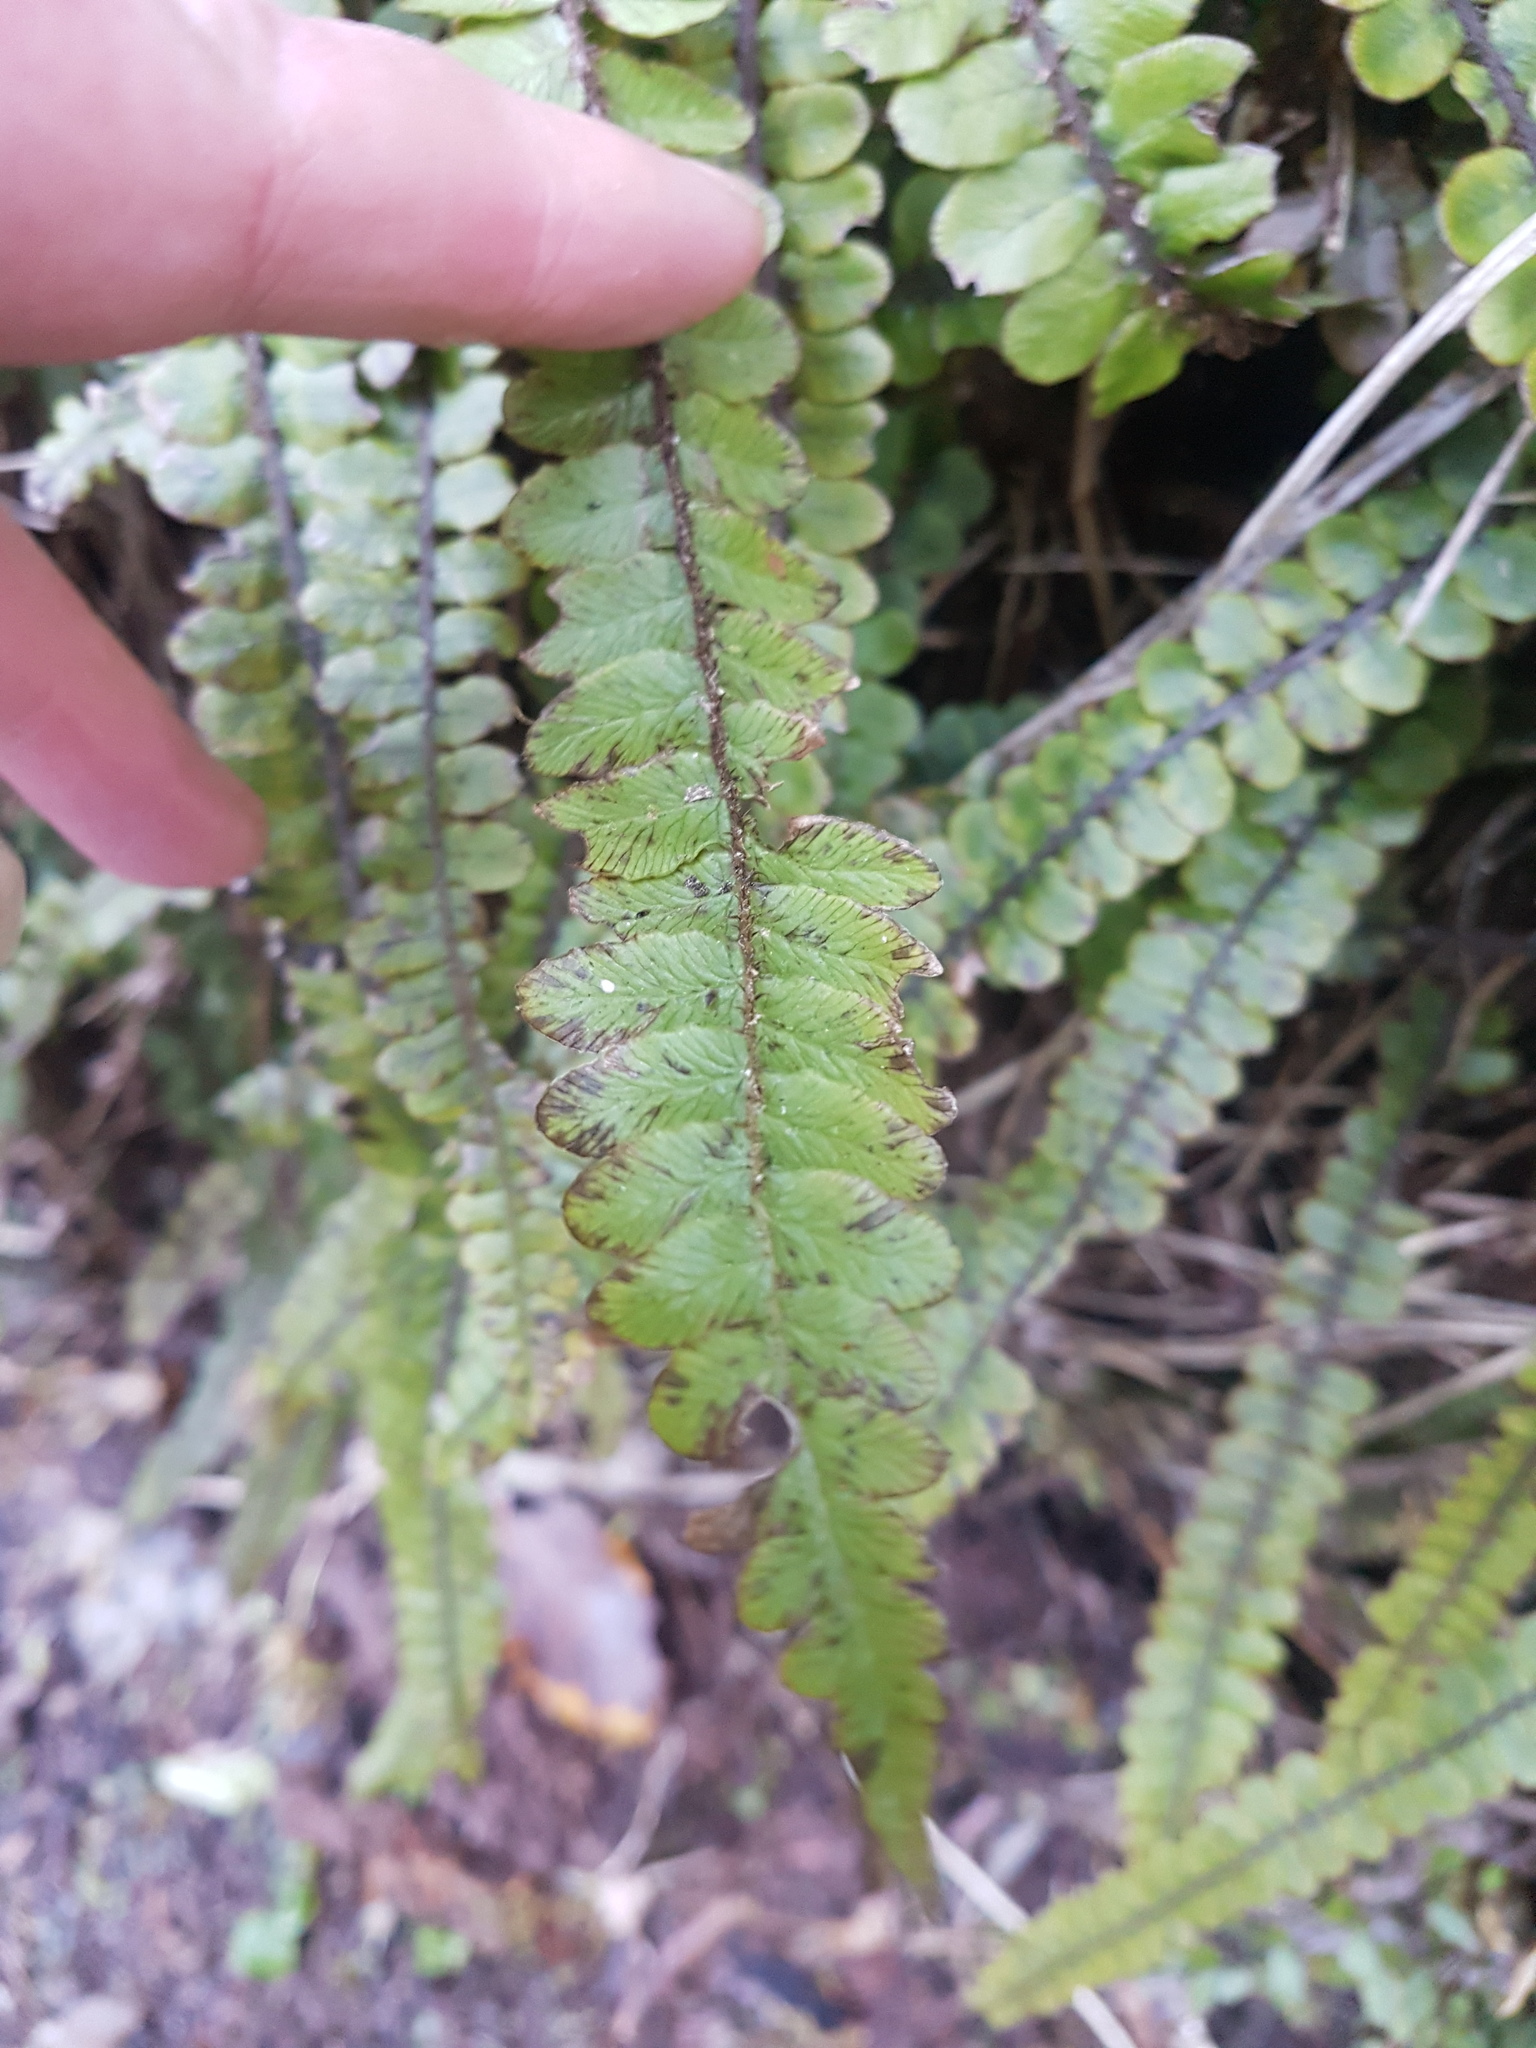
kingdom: Plantae
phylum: Tracheophyta
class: Polypodiopsida
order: Polypodiales
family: Blechnaceae
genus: Cranfillia
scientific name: Cranfillia fluviatilis
